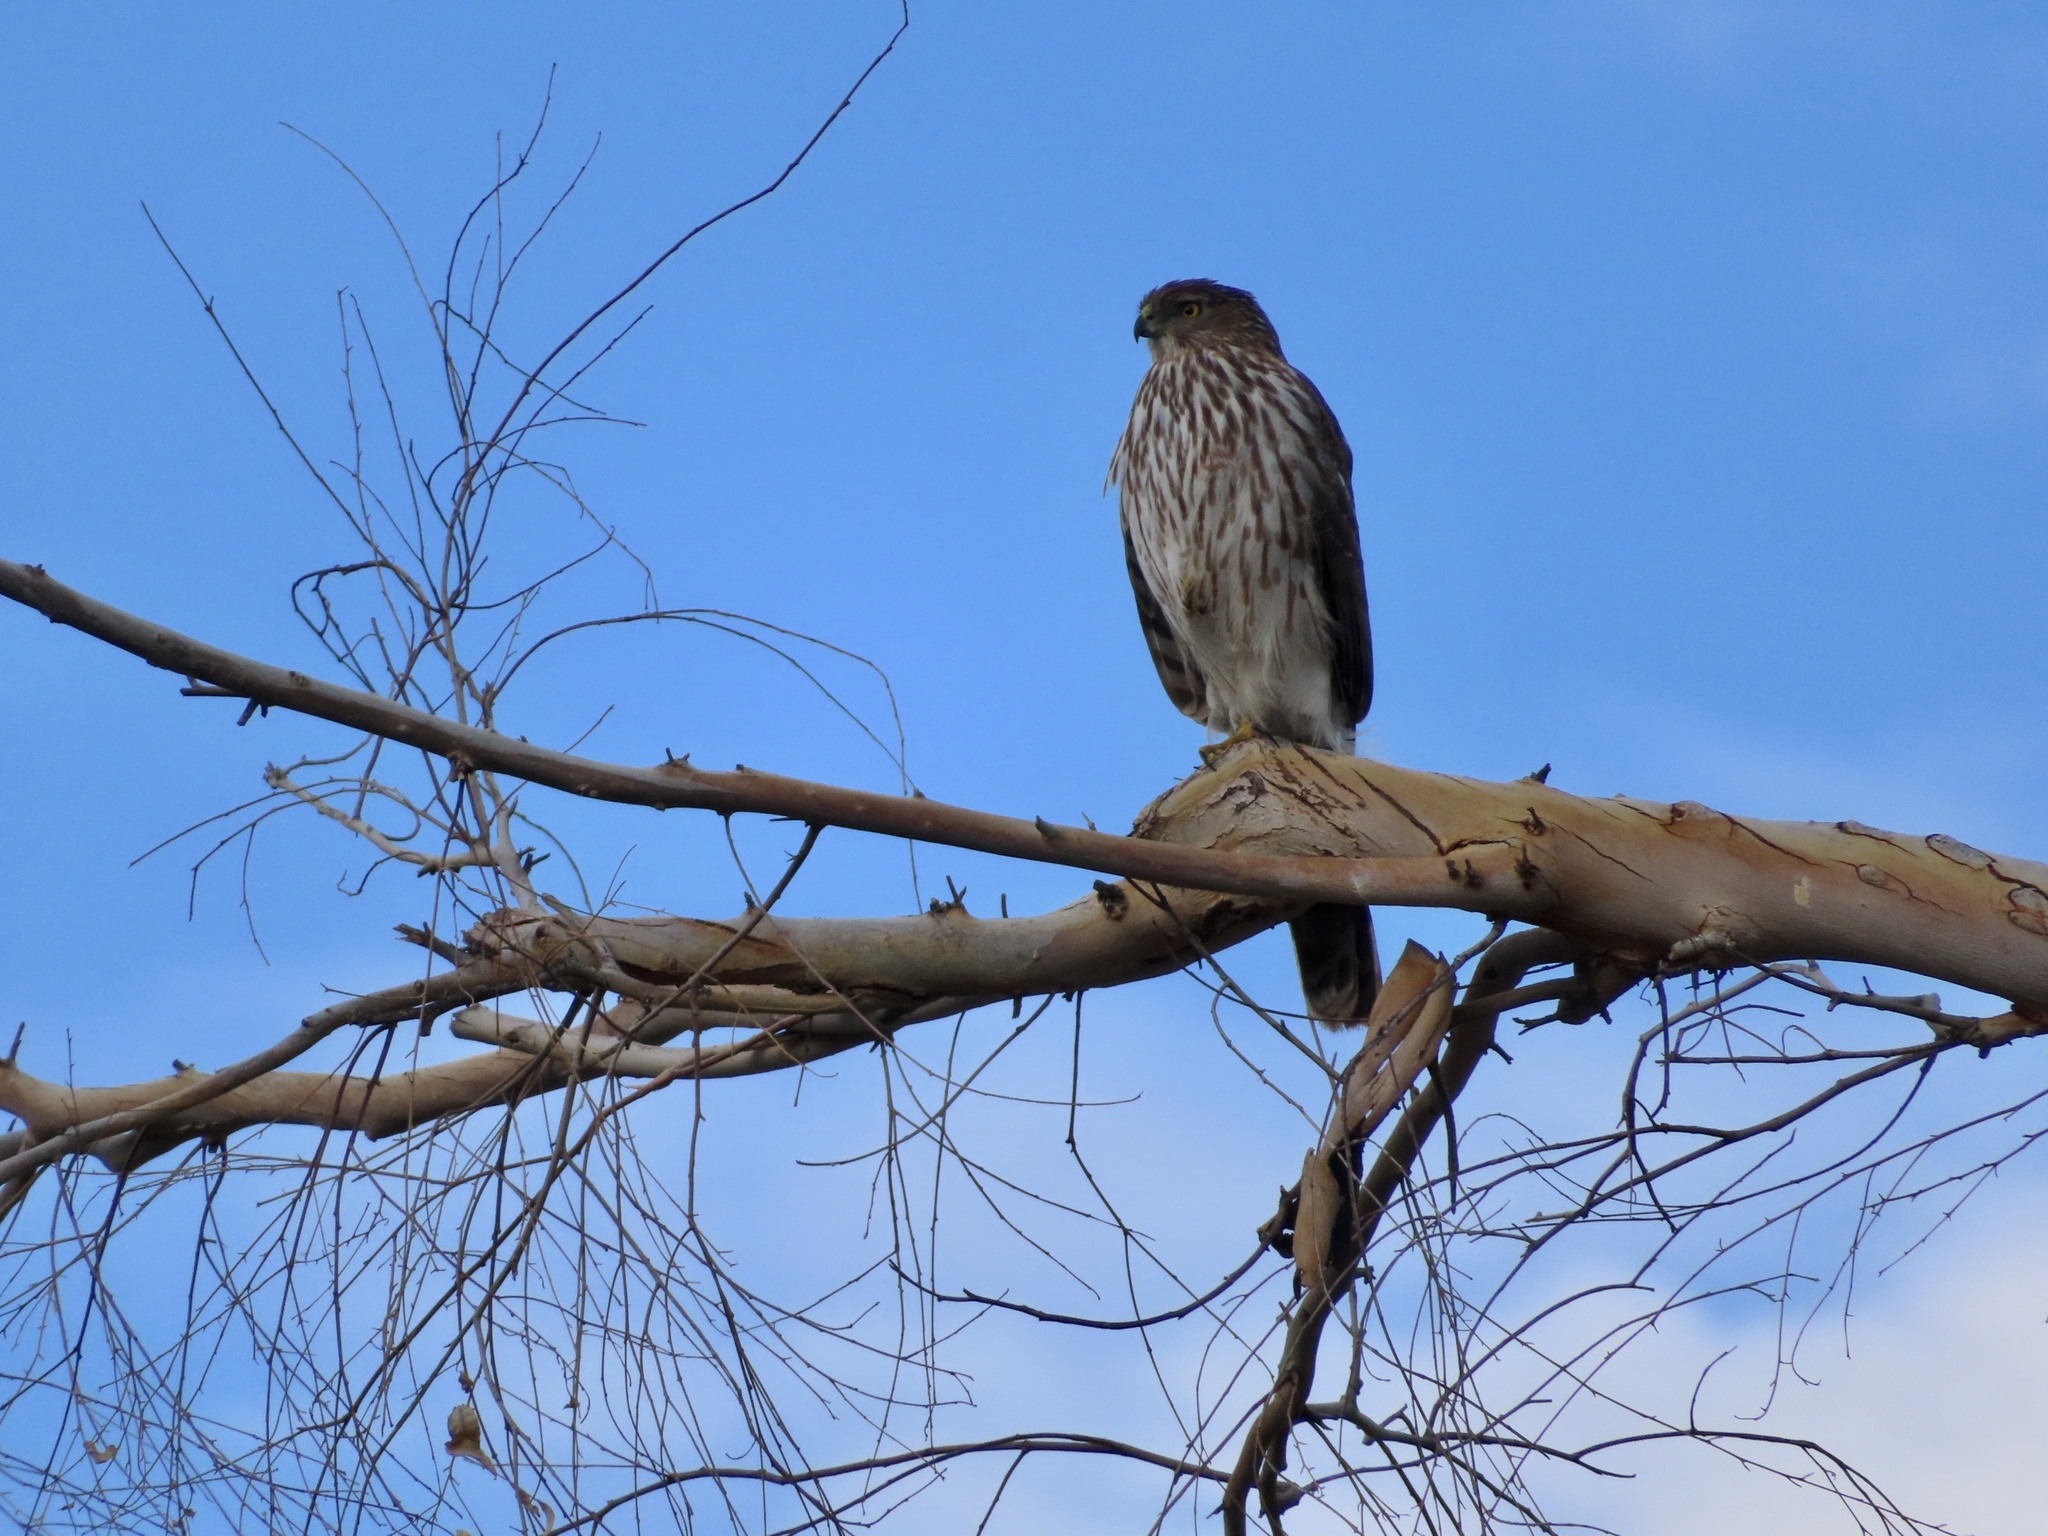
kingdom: Animalia
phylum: Chordata
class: Aves
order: Accipitriformes
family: Accipitridae
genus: Accipiter
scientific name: Accipiter cooperii
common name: Cooper's hawk
